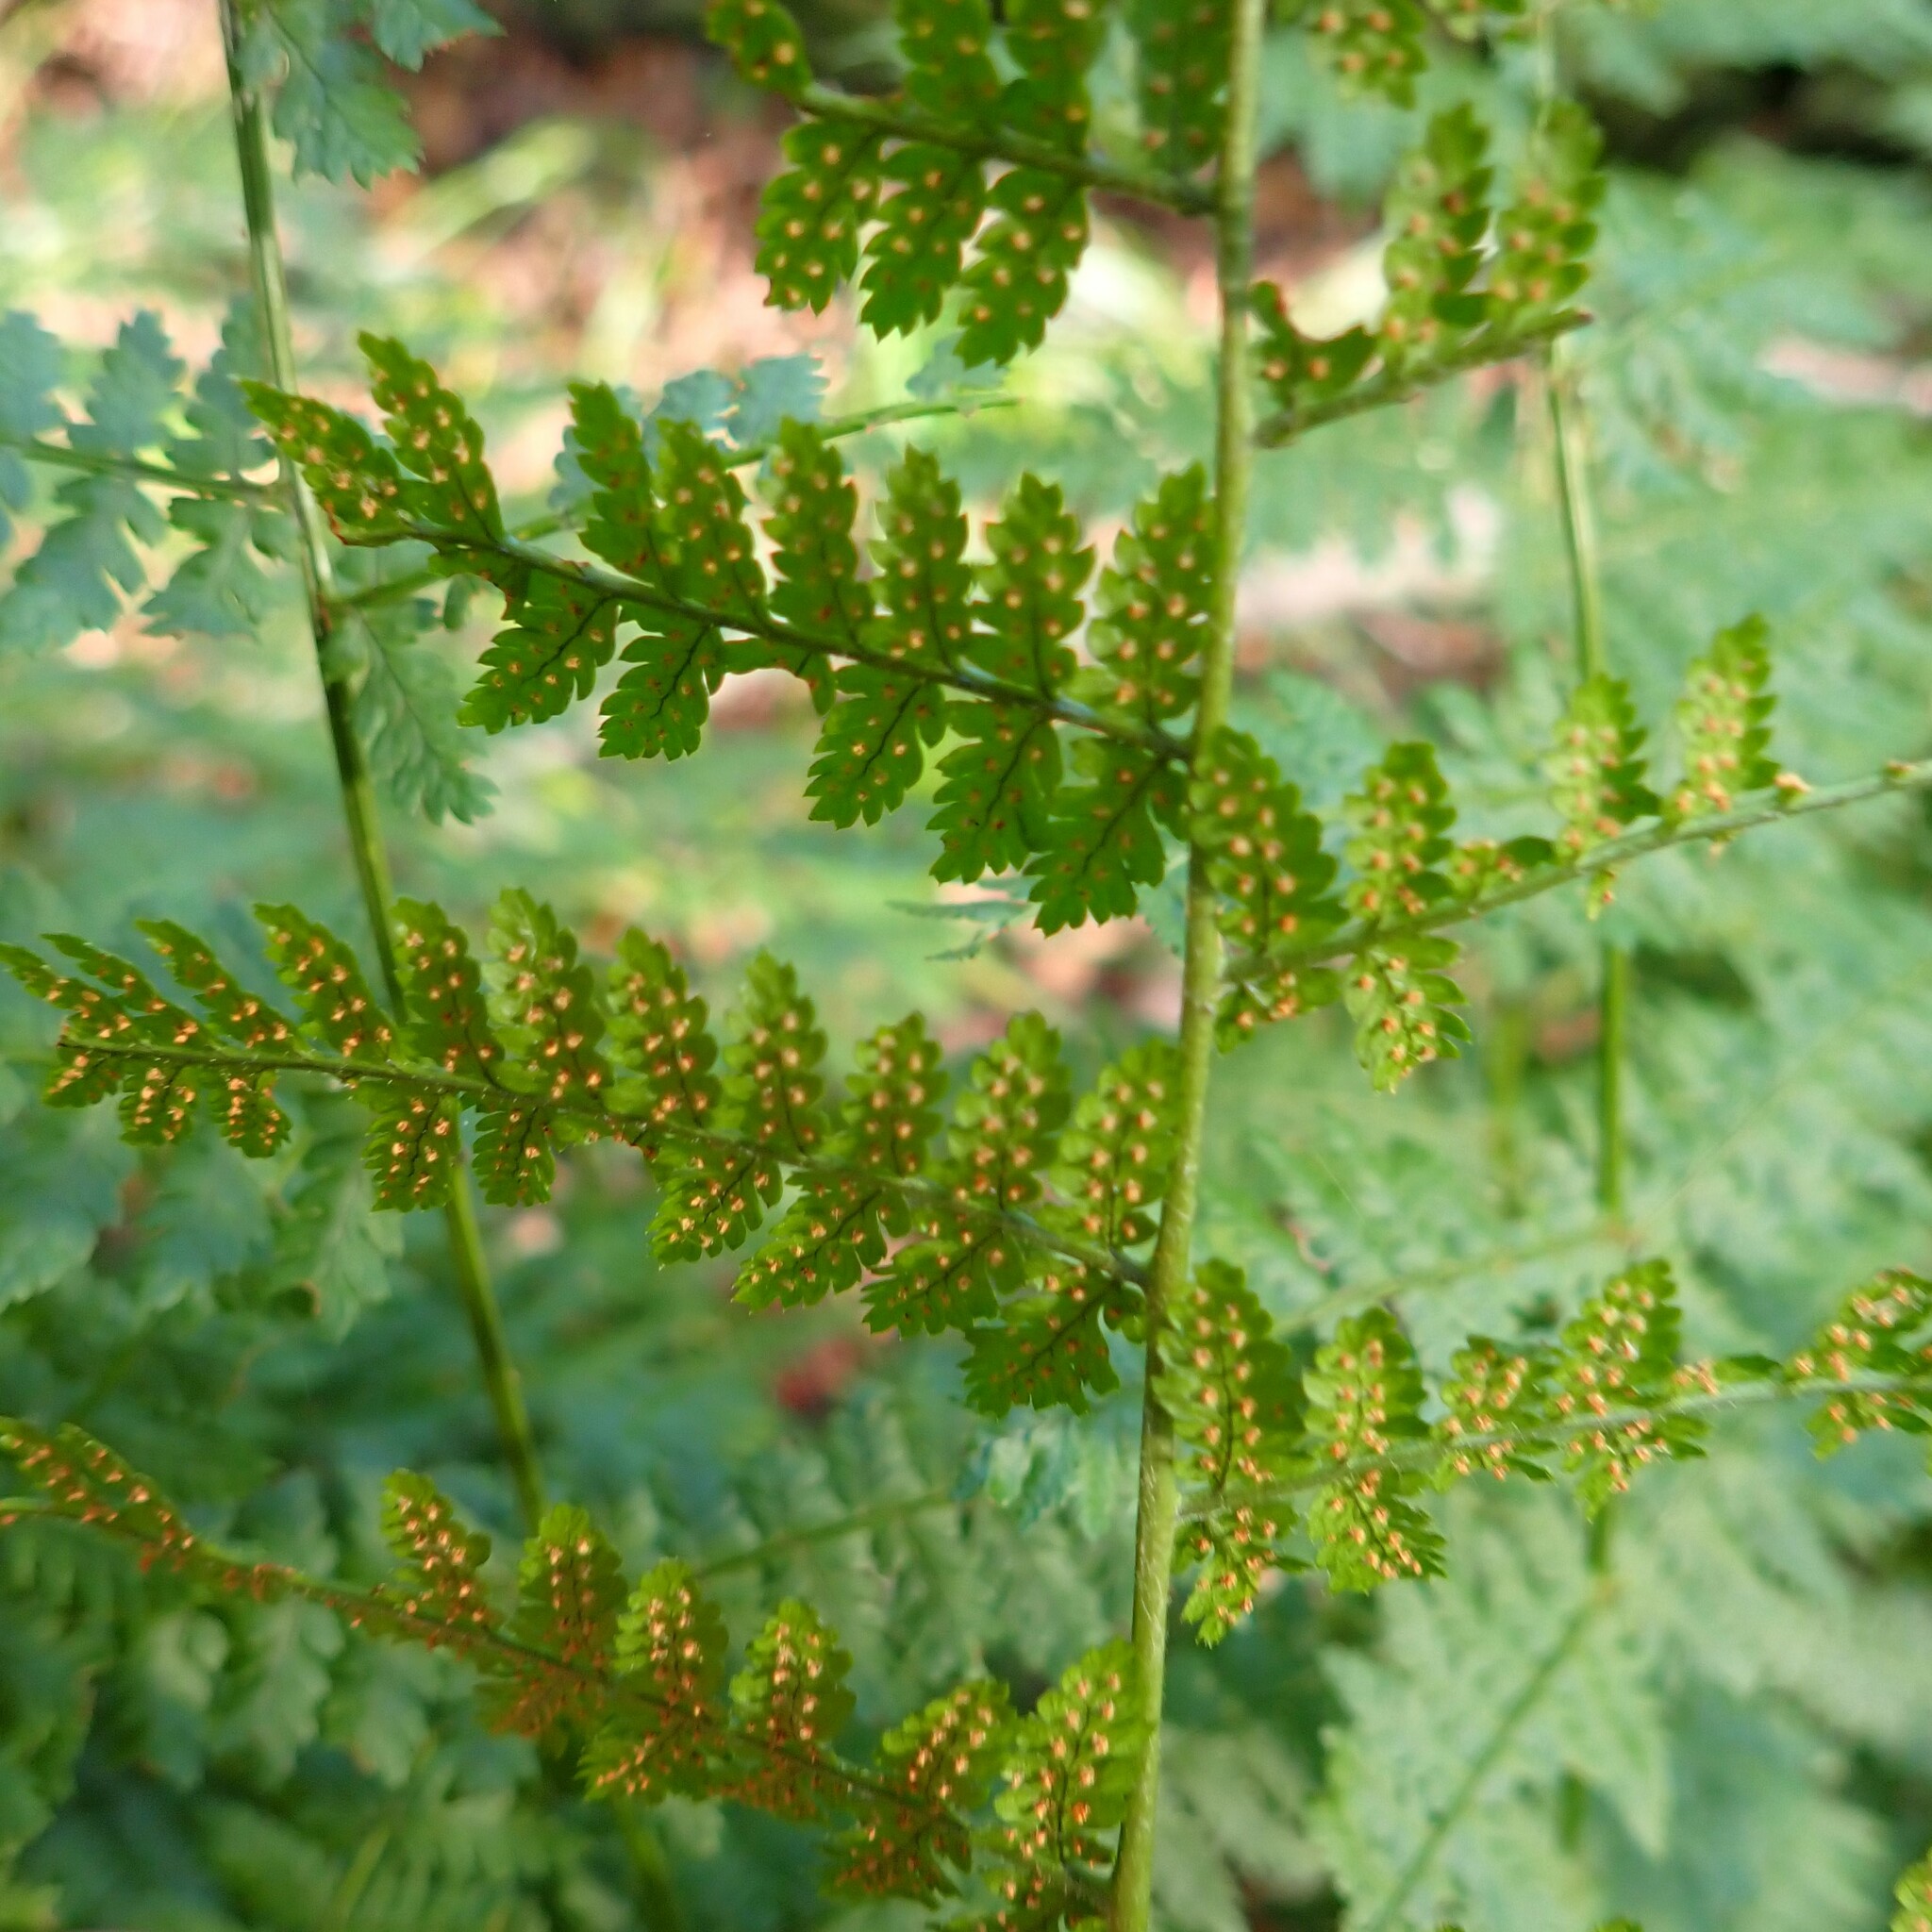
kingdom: Plantae
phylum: Tracheophyta
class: Polypodiopsida
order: Polypodiales
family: Dryopteridaceae
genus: Dryopteris
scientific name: Dryopteris intermedia
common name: Evergreen wood fern
